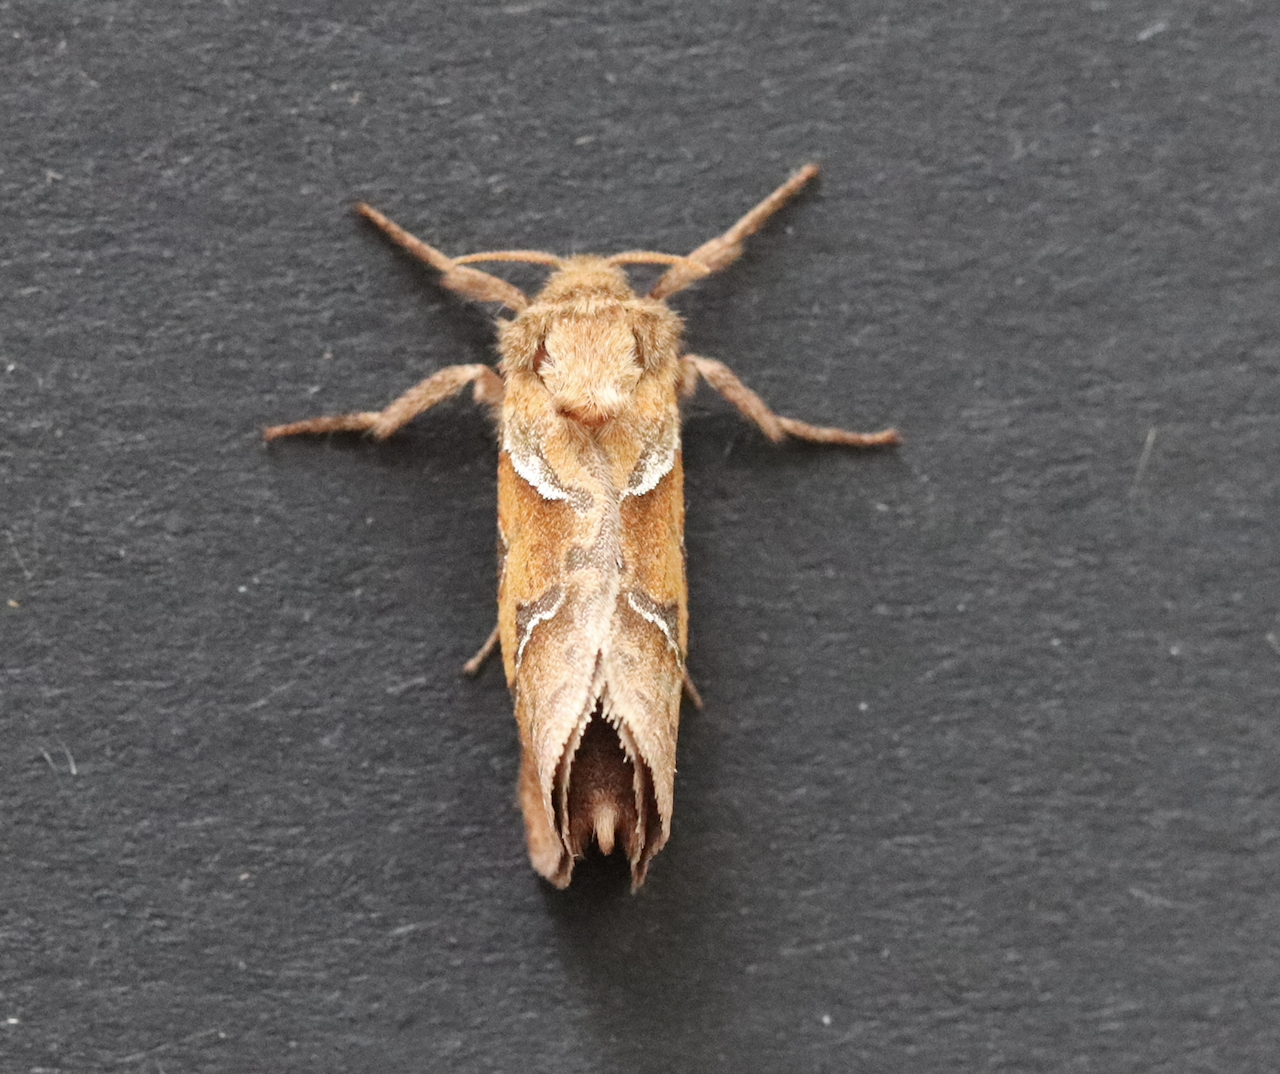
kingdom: Animalia
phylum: Arthropoda
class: Insecta
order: Lepidoptera
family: Hepialidae
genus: Triodia
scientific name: Triodia sylvina
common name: Orange swift
